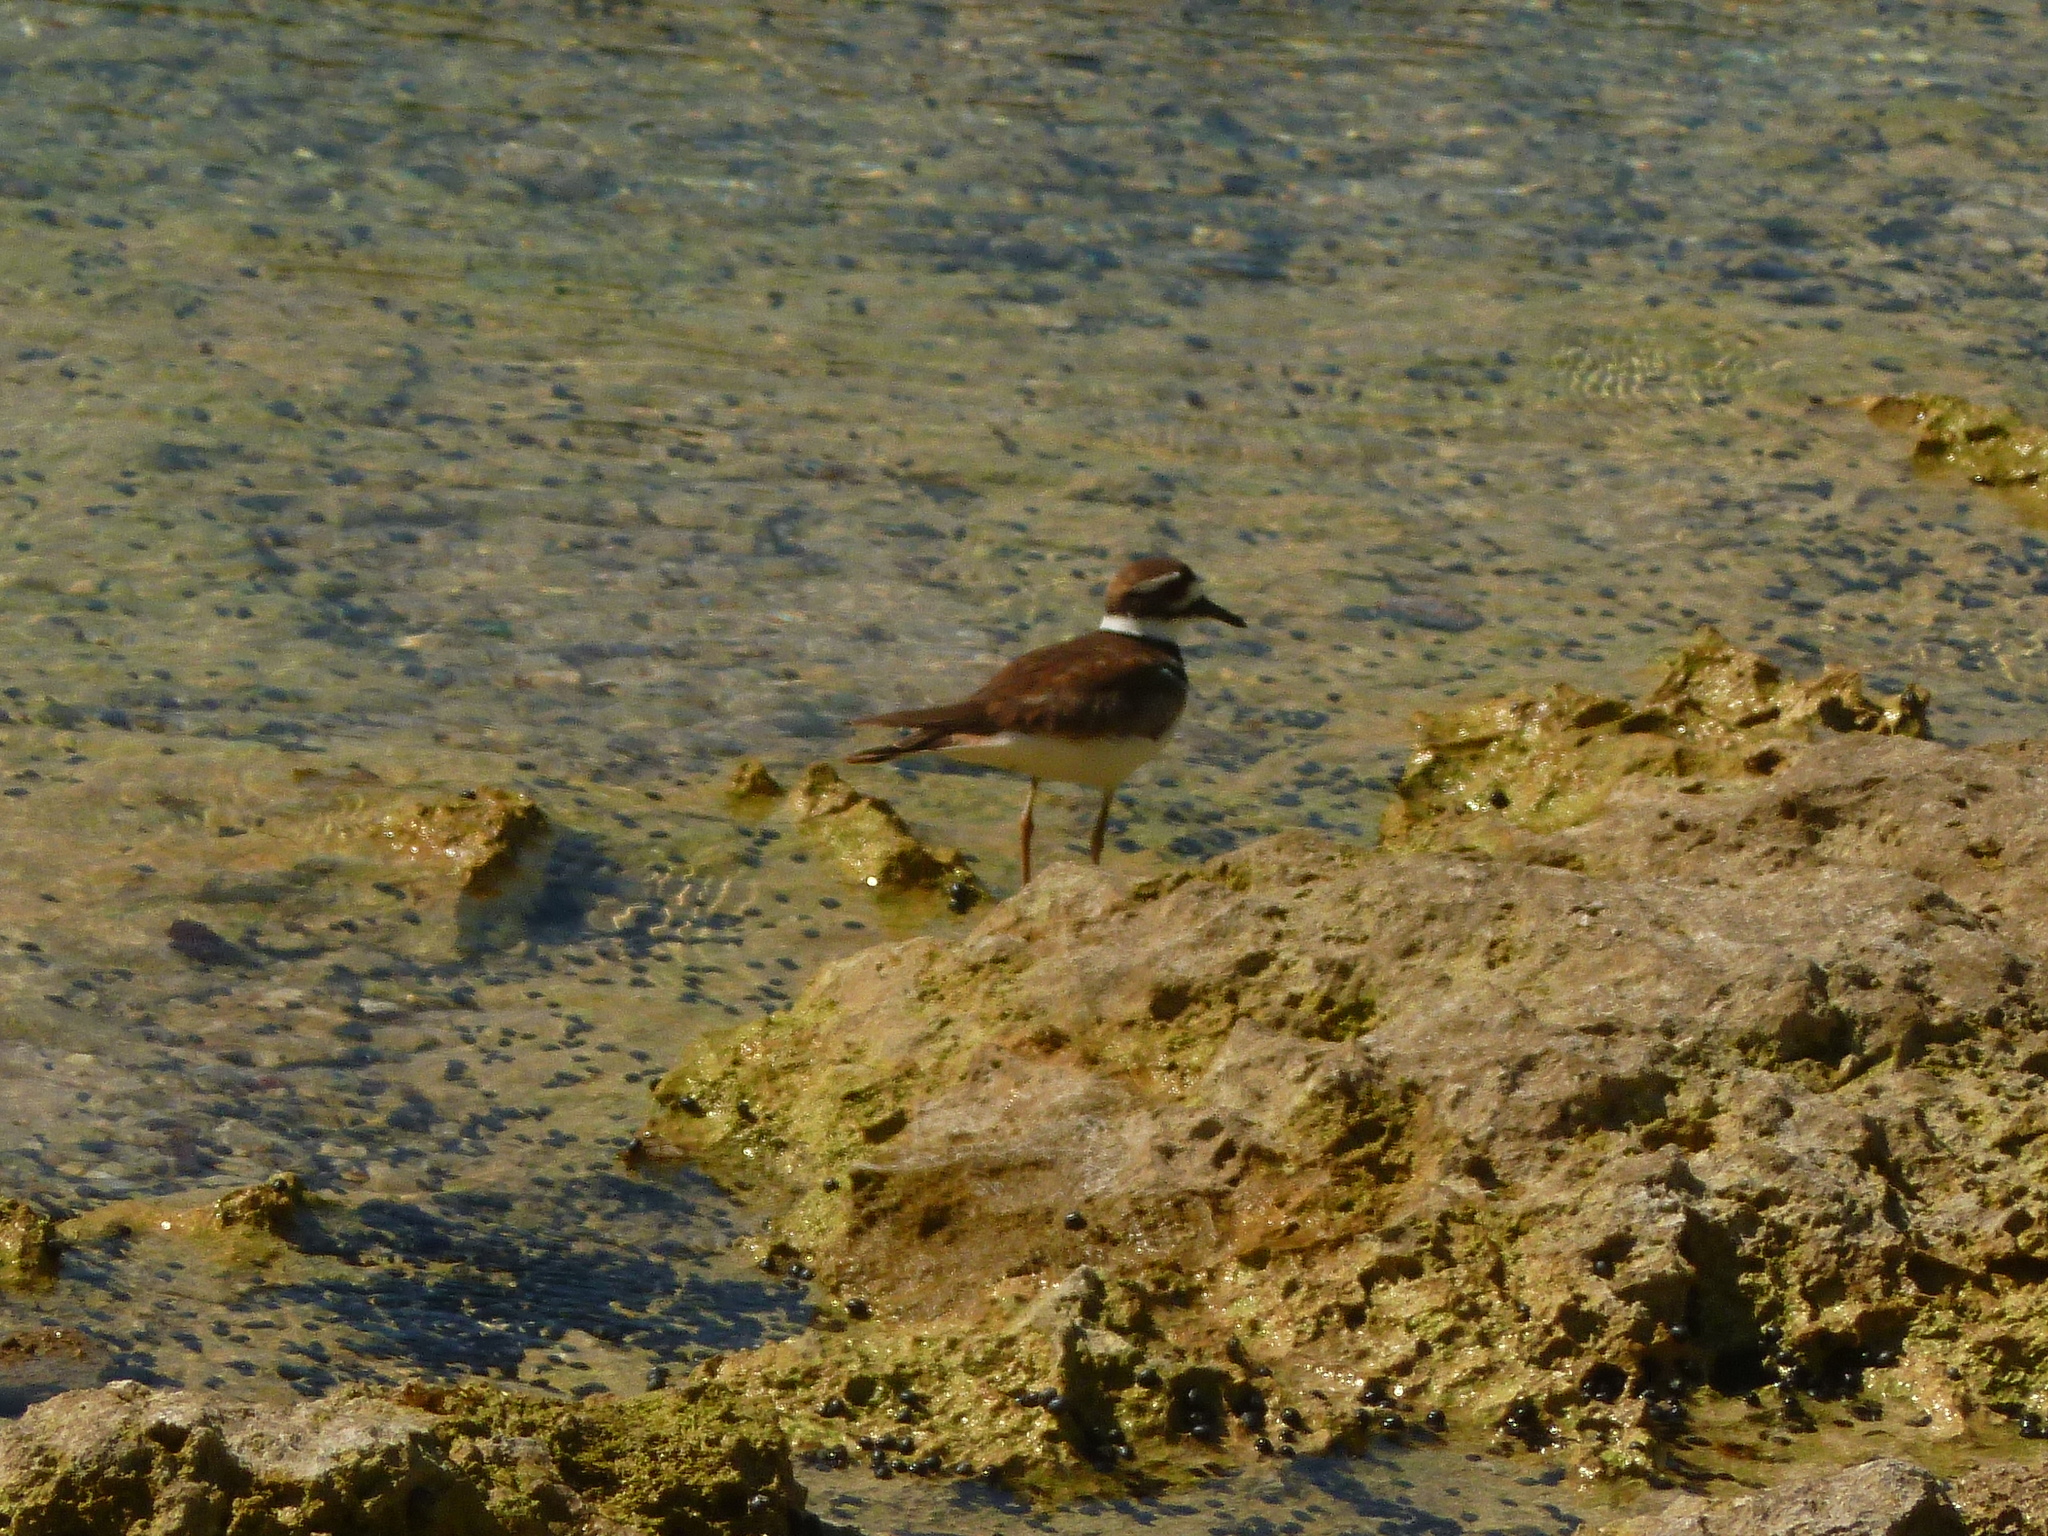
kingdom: Animalia
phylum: Chordata
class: Aves
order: Charadriiformes
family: Charadriidae
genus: Charadrius
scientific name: Charadrius vociferus
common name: Killdeer
